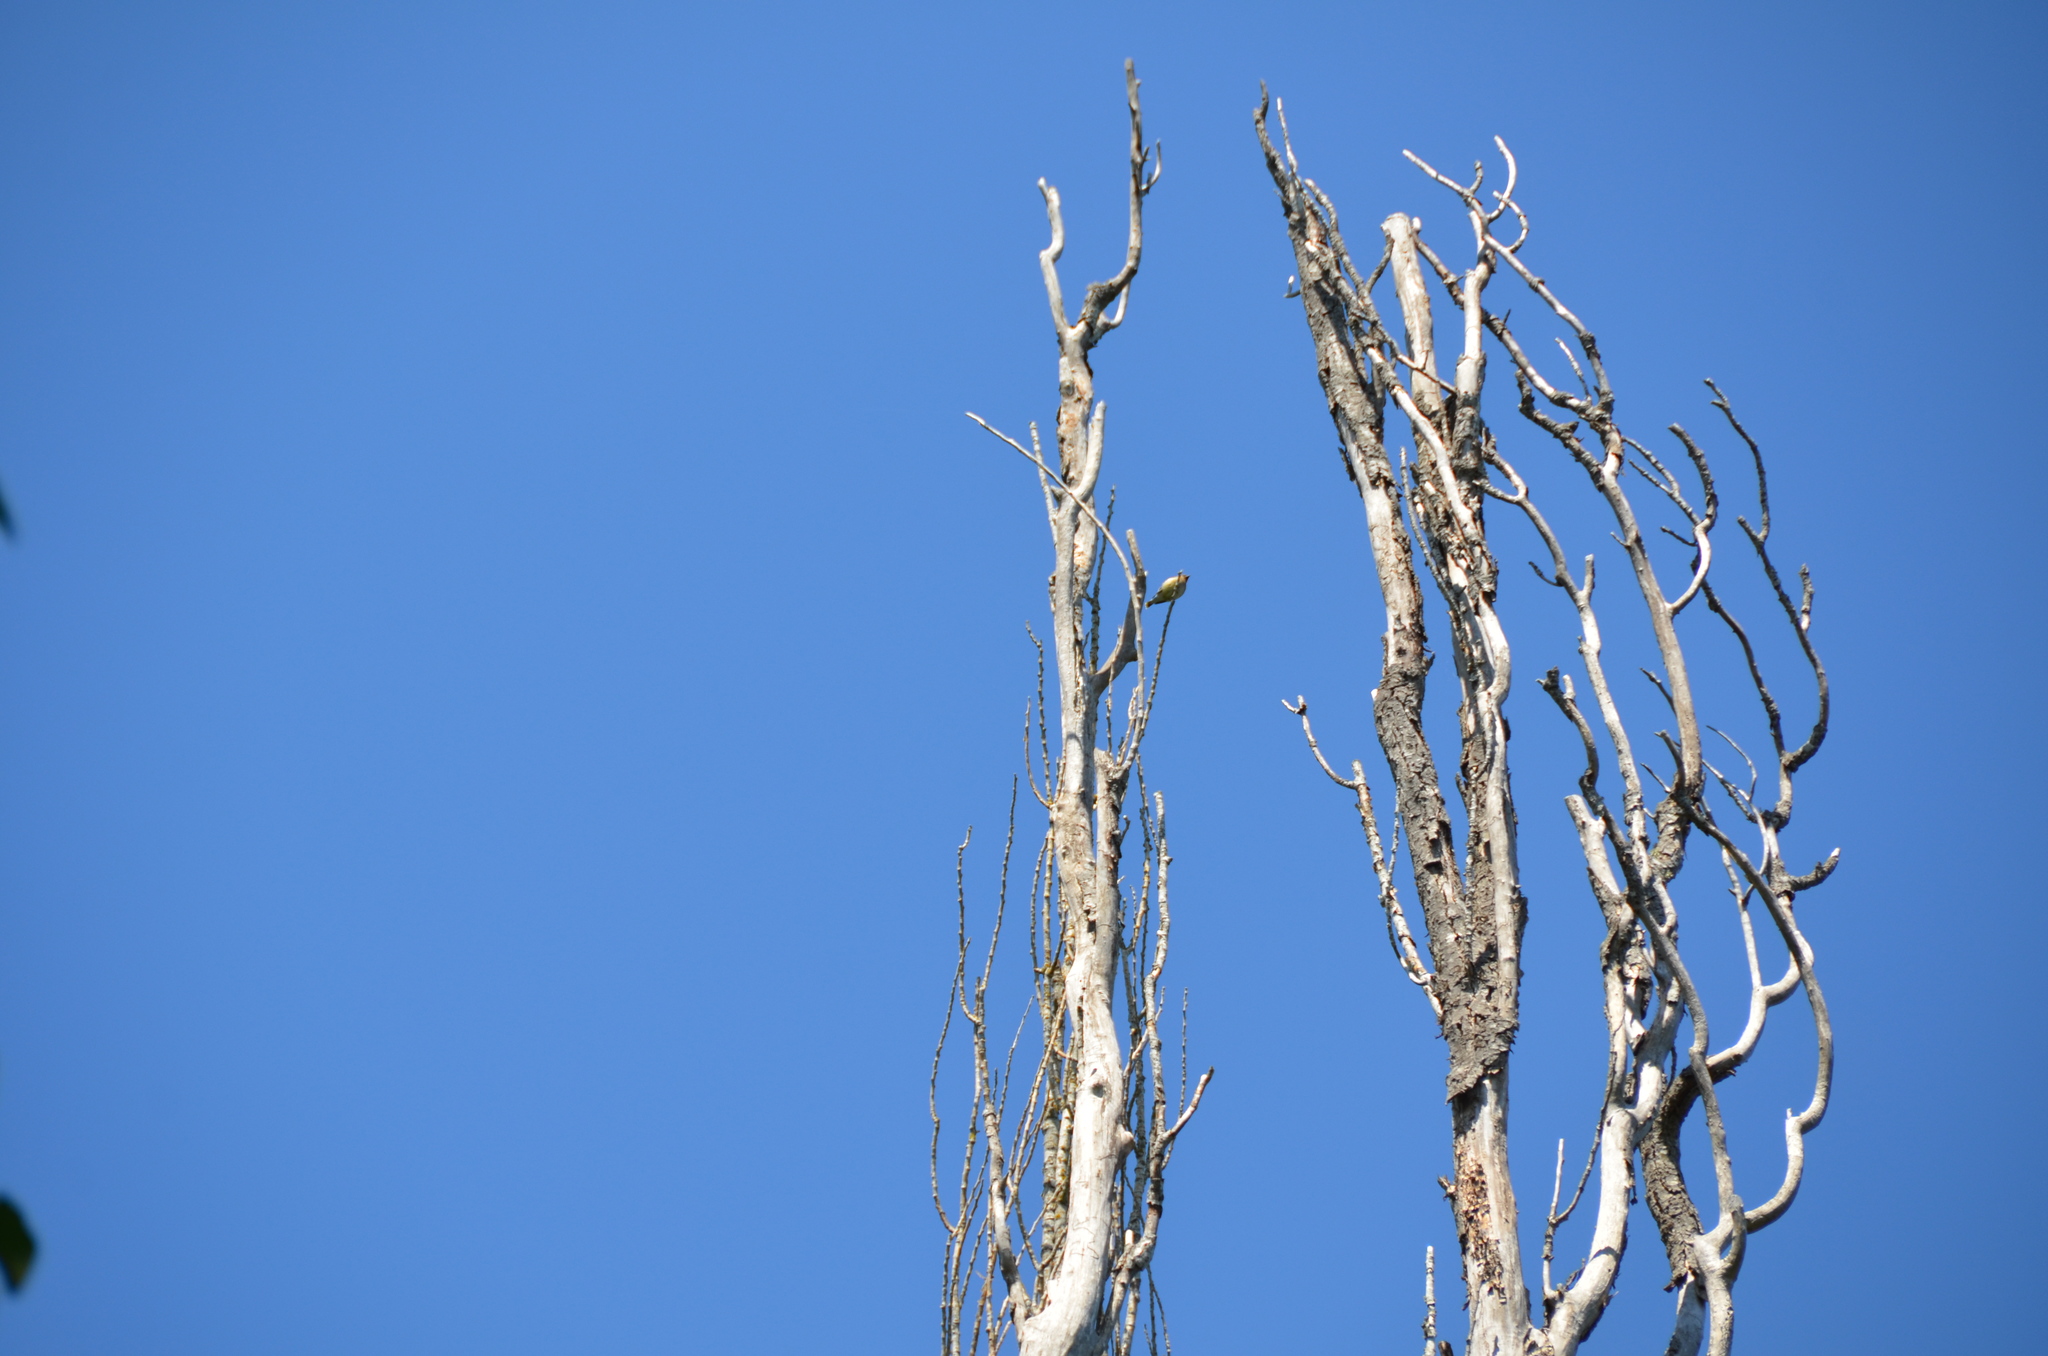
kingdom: Animalia
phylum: Chordata
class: Aves
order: Passeriformes
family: Bombycillidae
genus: Bombycilla
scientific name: Bombycilla cedrorum
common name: Cedar waxwing
